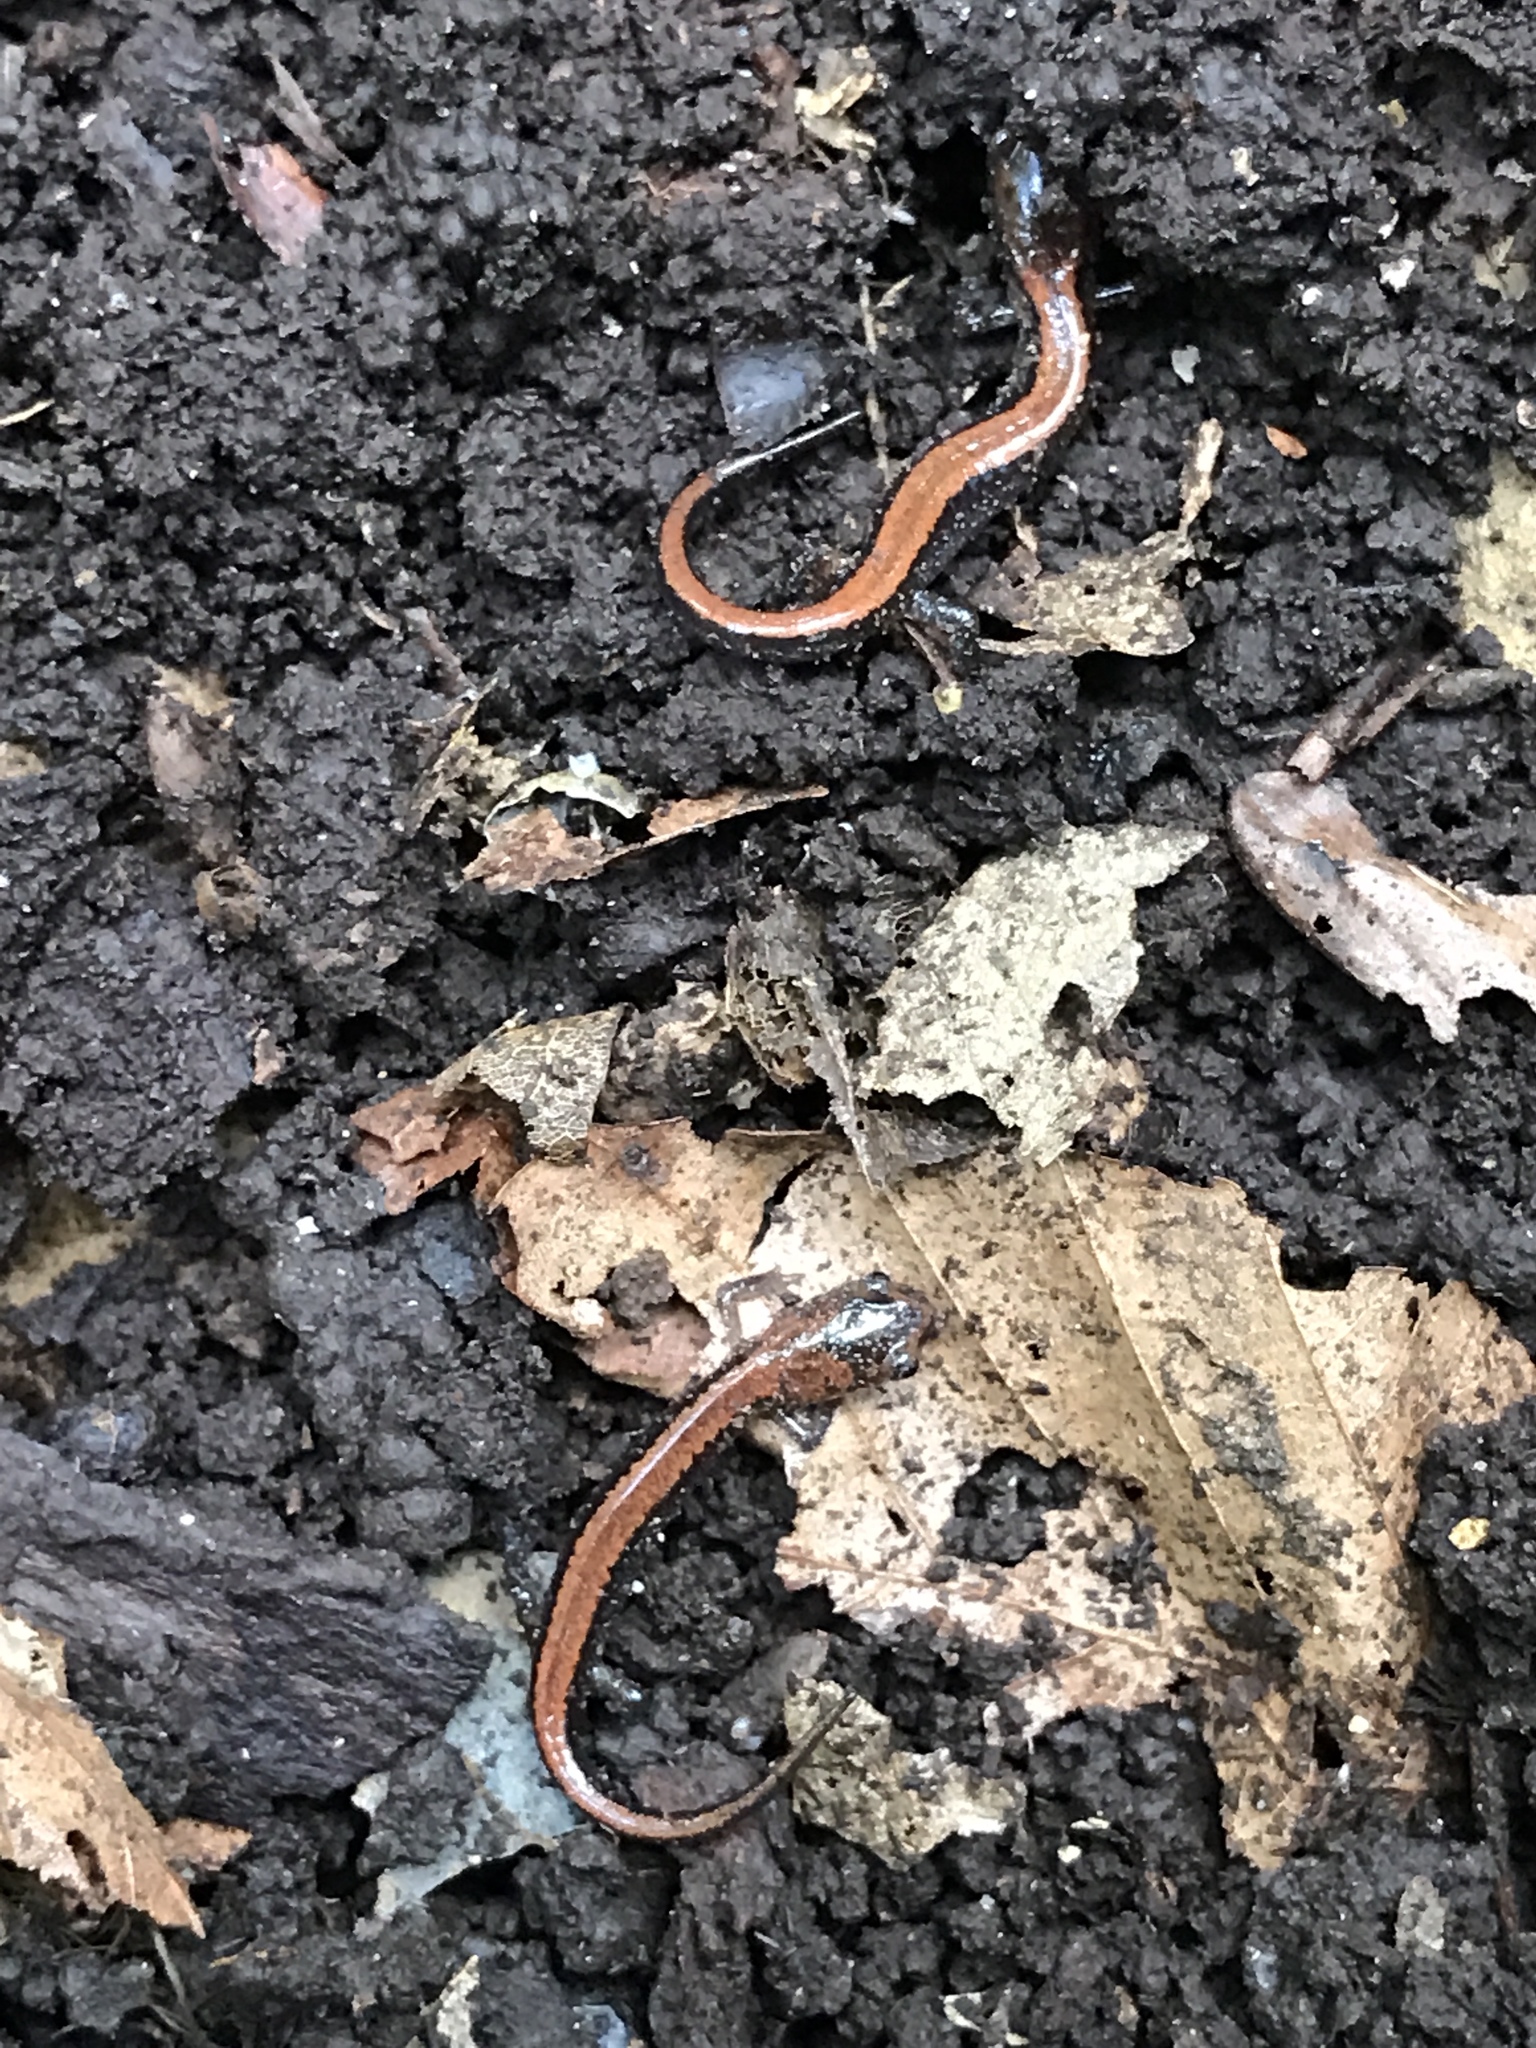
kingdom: Animalia
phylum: Chordata
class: Amphibia
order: Caudata
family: Plethodontidae
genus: Plethodon
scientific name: Plethodon cinereus
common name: Redback salamander
